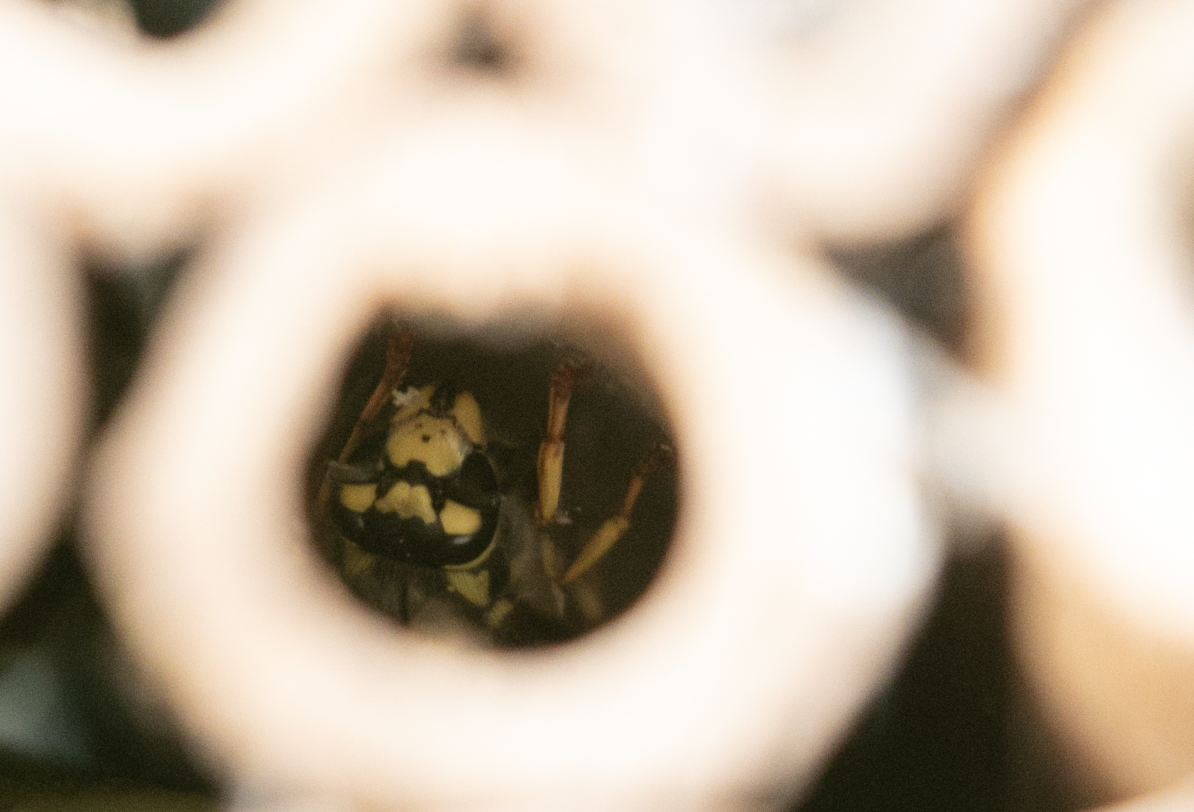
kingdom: Animalia
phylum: Arthropoda
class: Insecta
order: Hymenoptera
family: Vespidae
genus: Vespula
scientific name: Vespula germanica
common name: German wasp
